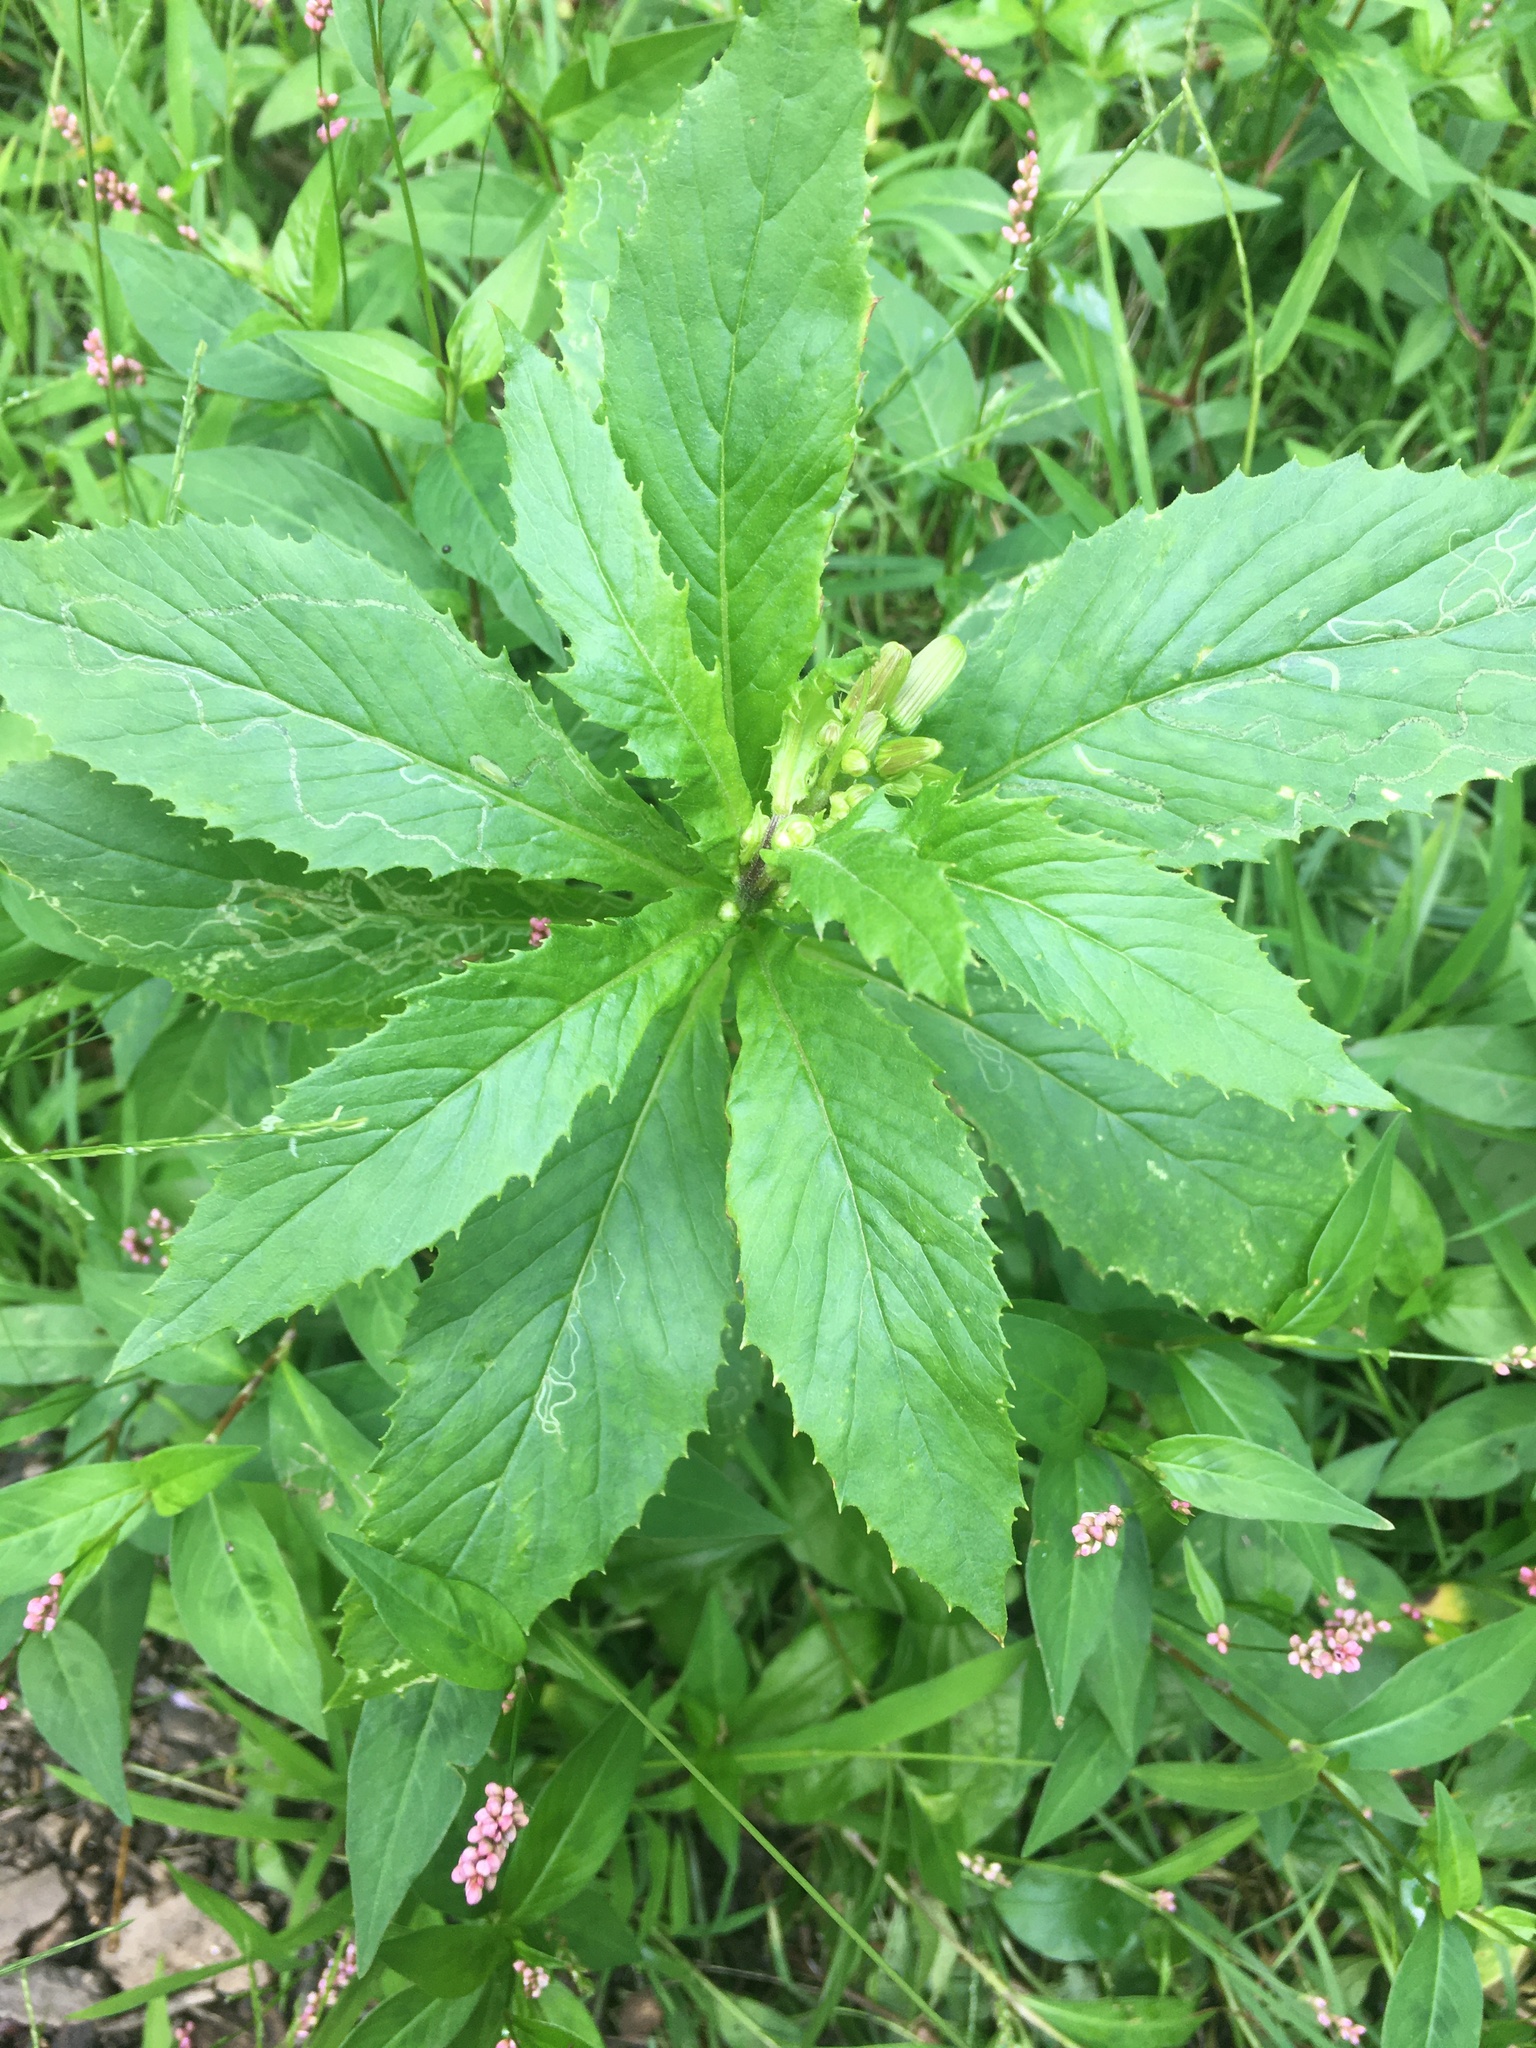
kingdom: Plantae
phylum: Tracheophyta
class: Magnoliopsida
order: Asterales
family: Asteraceae
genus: Erechtites
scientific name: Erechtites hieraciifolius
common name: American burnweed
